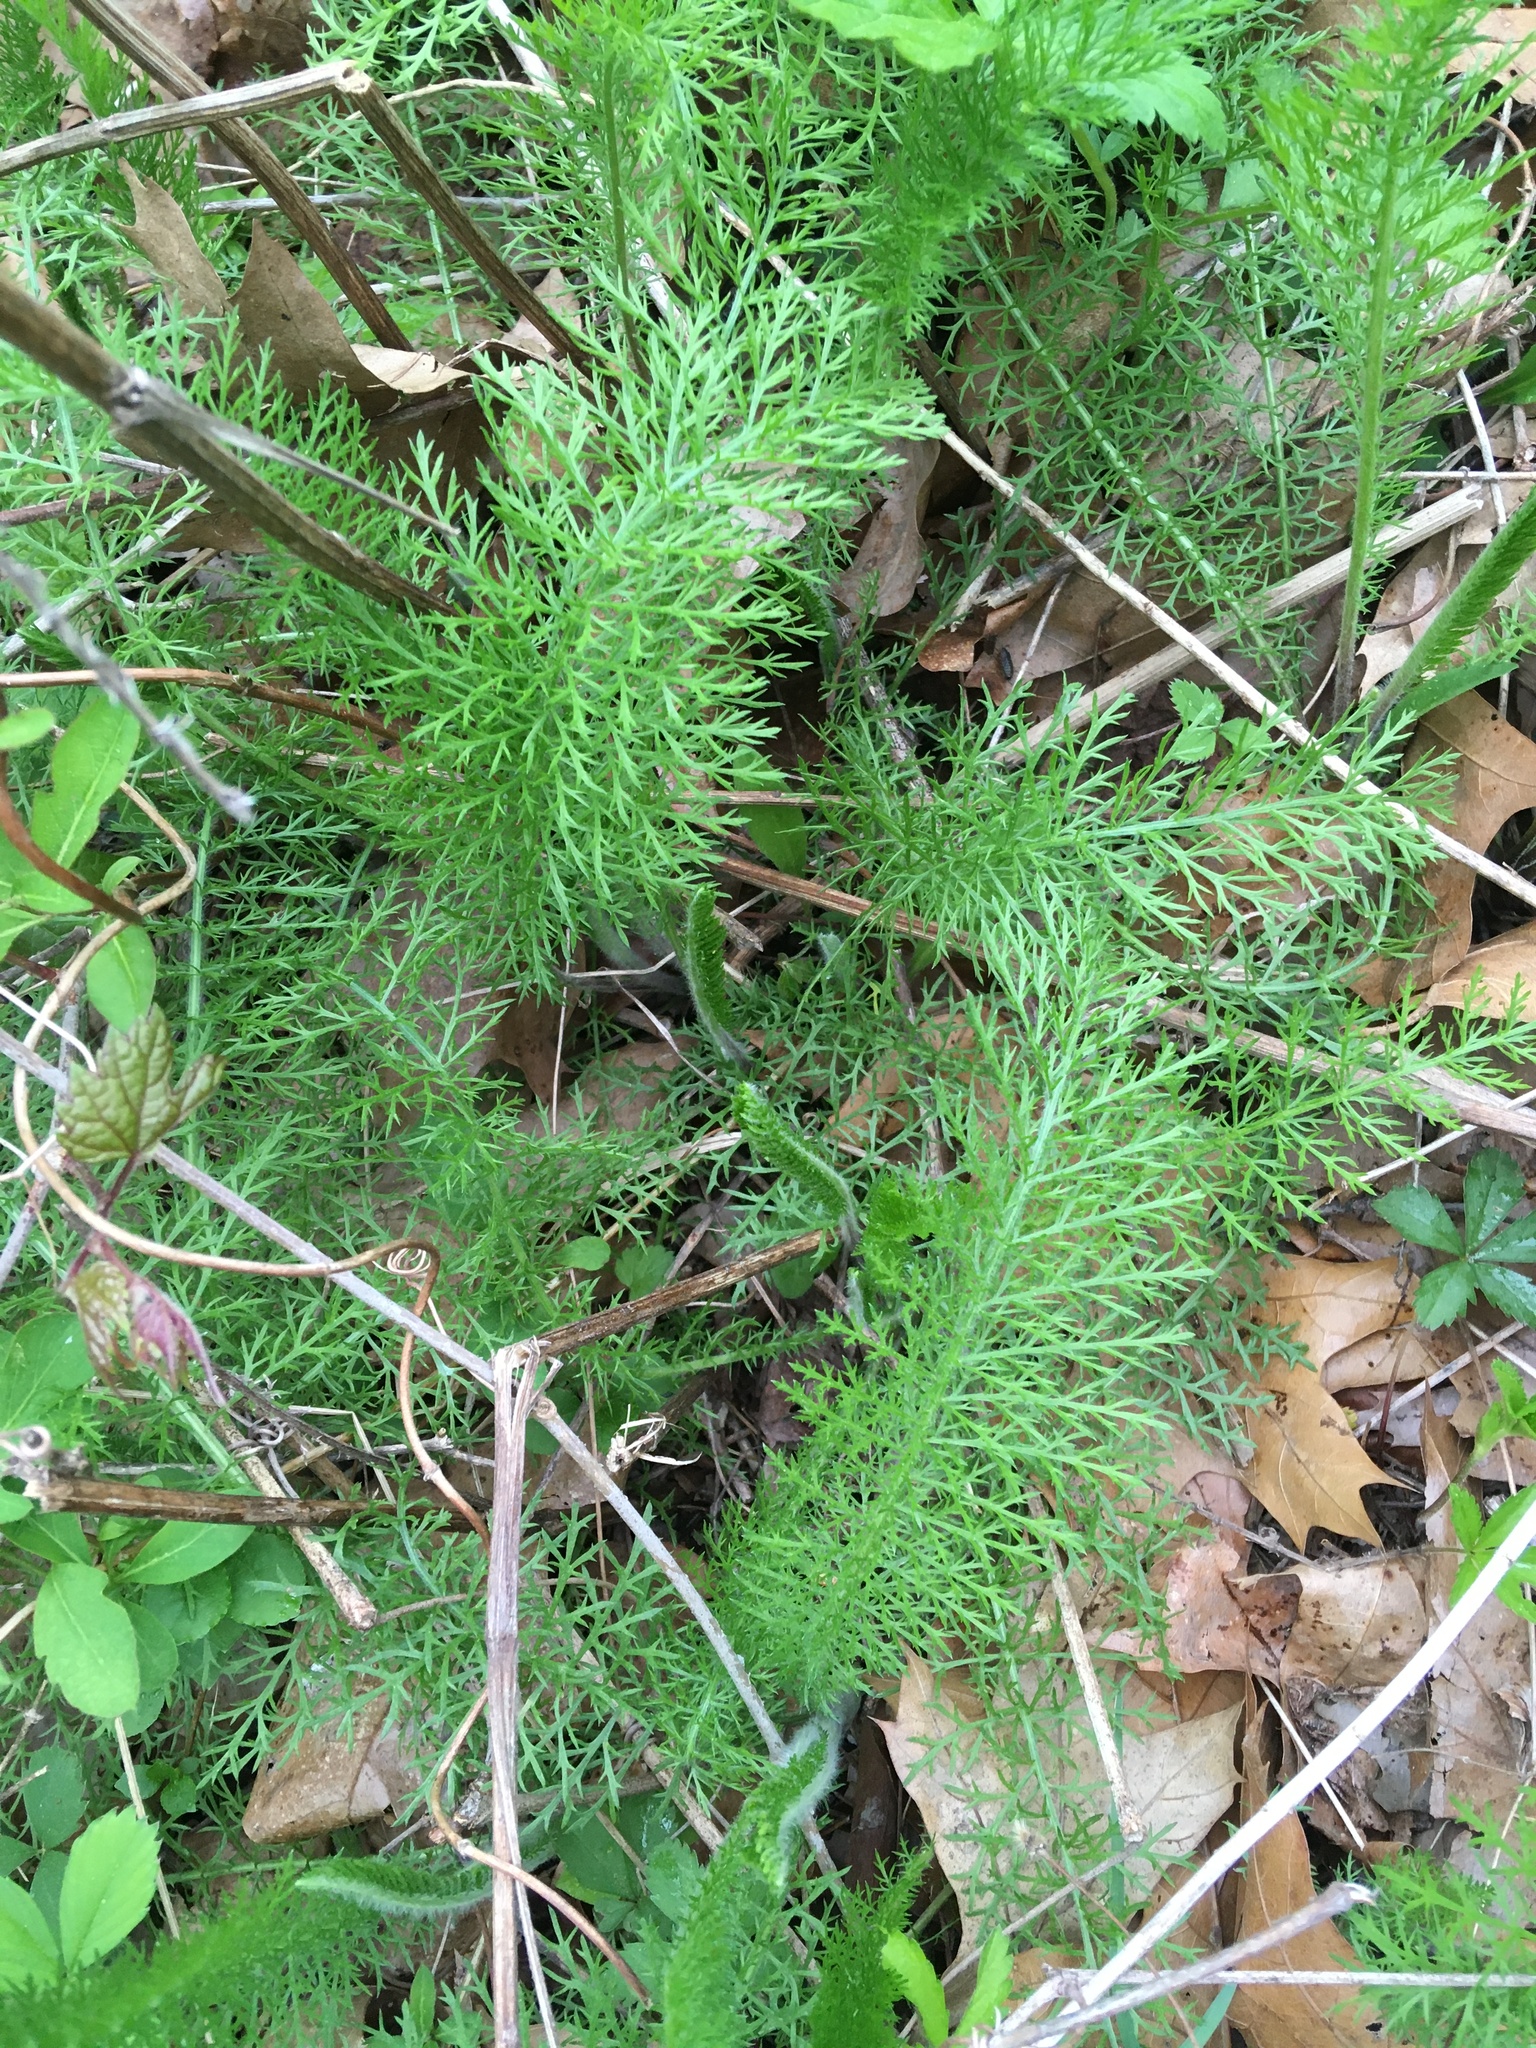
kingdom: Plantae
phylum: Tracheophyta
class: Magnoliopsida
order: Asterales
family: Asteraceae
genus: Achillea
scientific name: Achillea millefolium
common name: Yarrow
